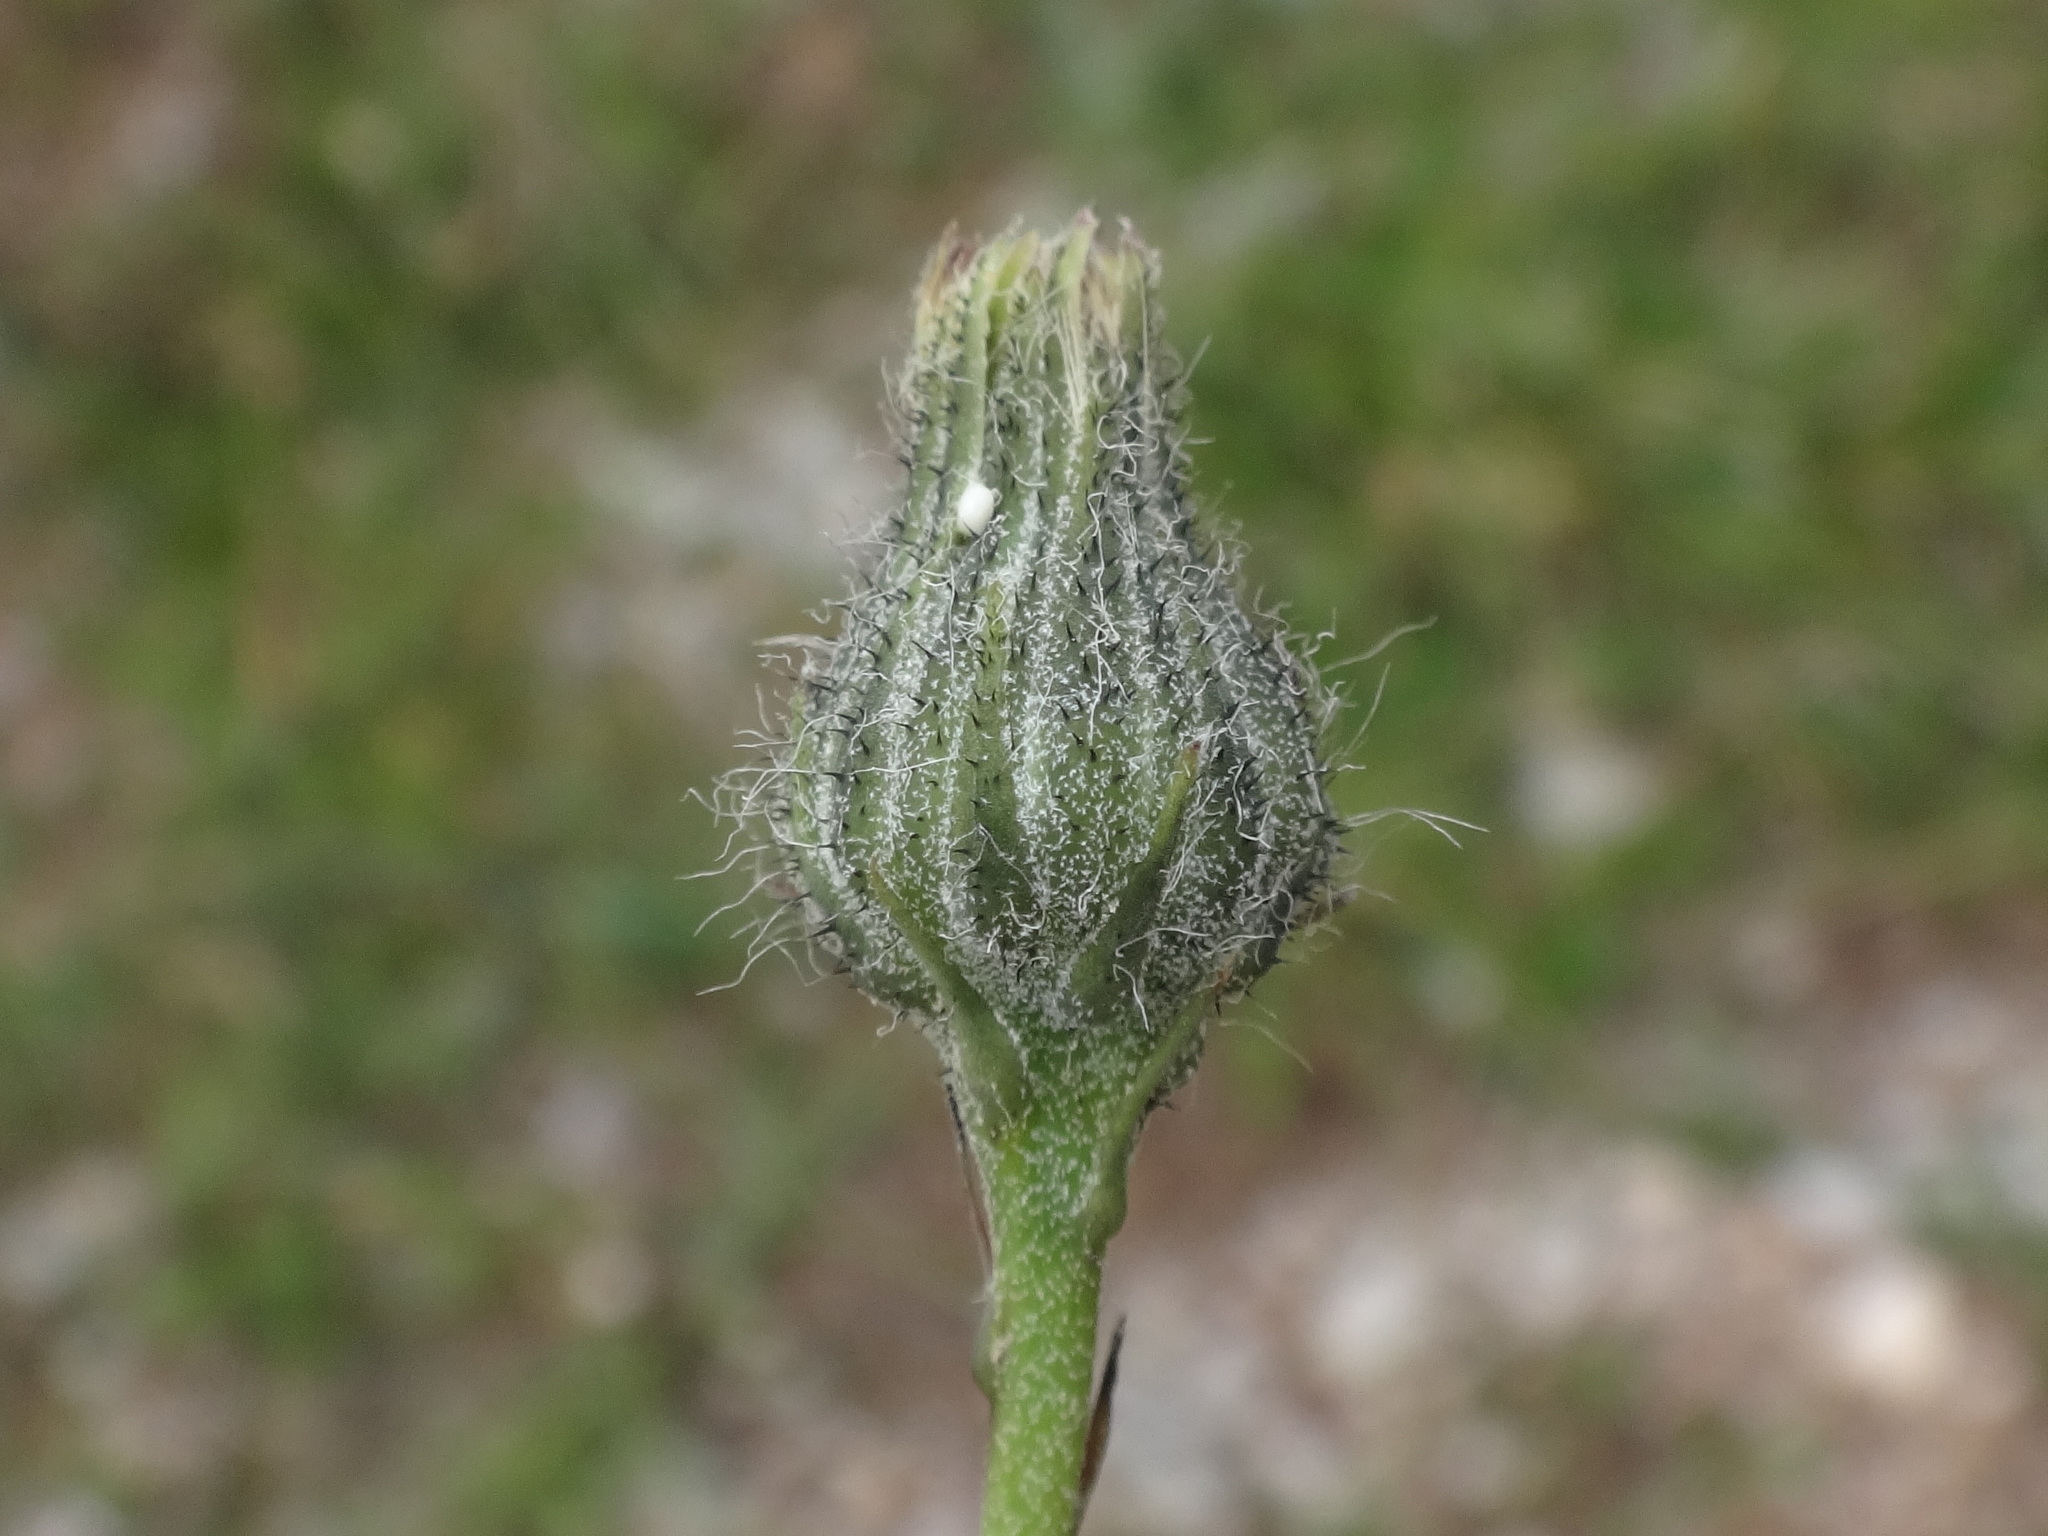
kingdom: Plantae
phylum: Tracheophyta
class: Magnoliopsida
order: Asterales
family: Asteraceae
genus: Hieracium
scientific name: Hieracium glaucum
